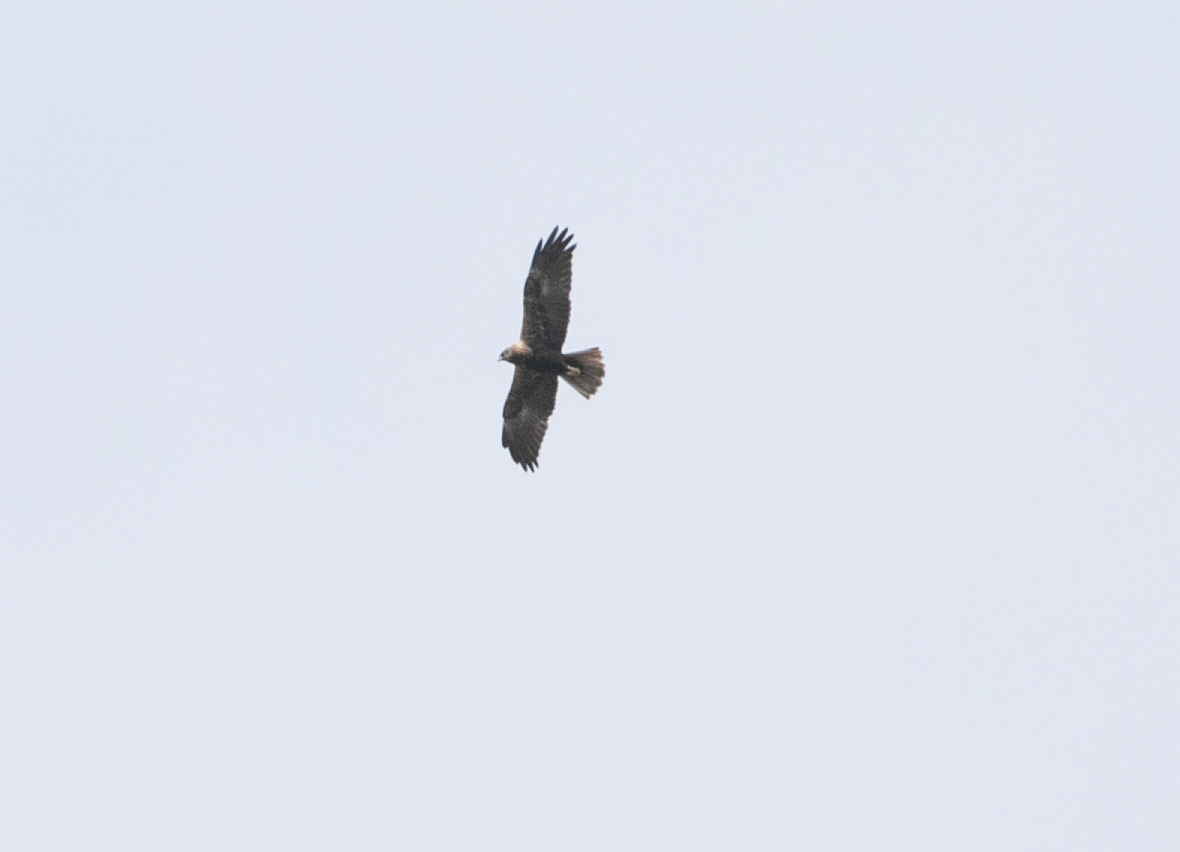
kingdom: Animalia
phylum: Chordata
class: Aves
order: Accipitriformes
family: Accipitridae
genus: Circus
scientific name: Circus aeruginosus
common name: Western marsh harrier
